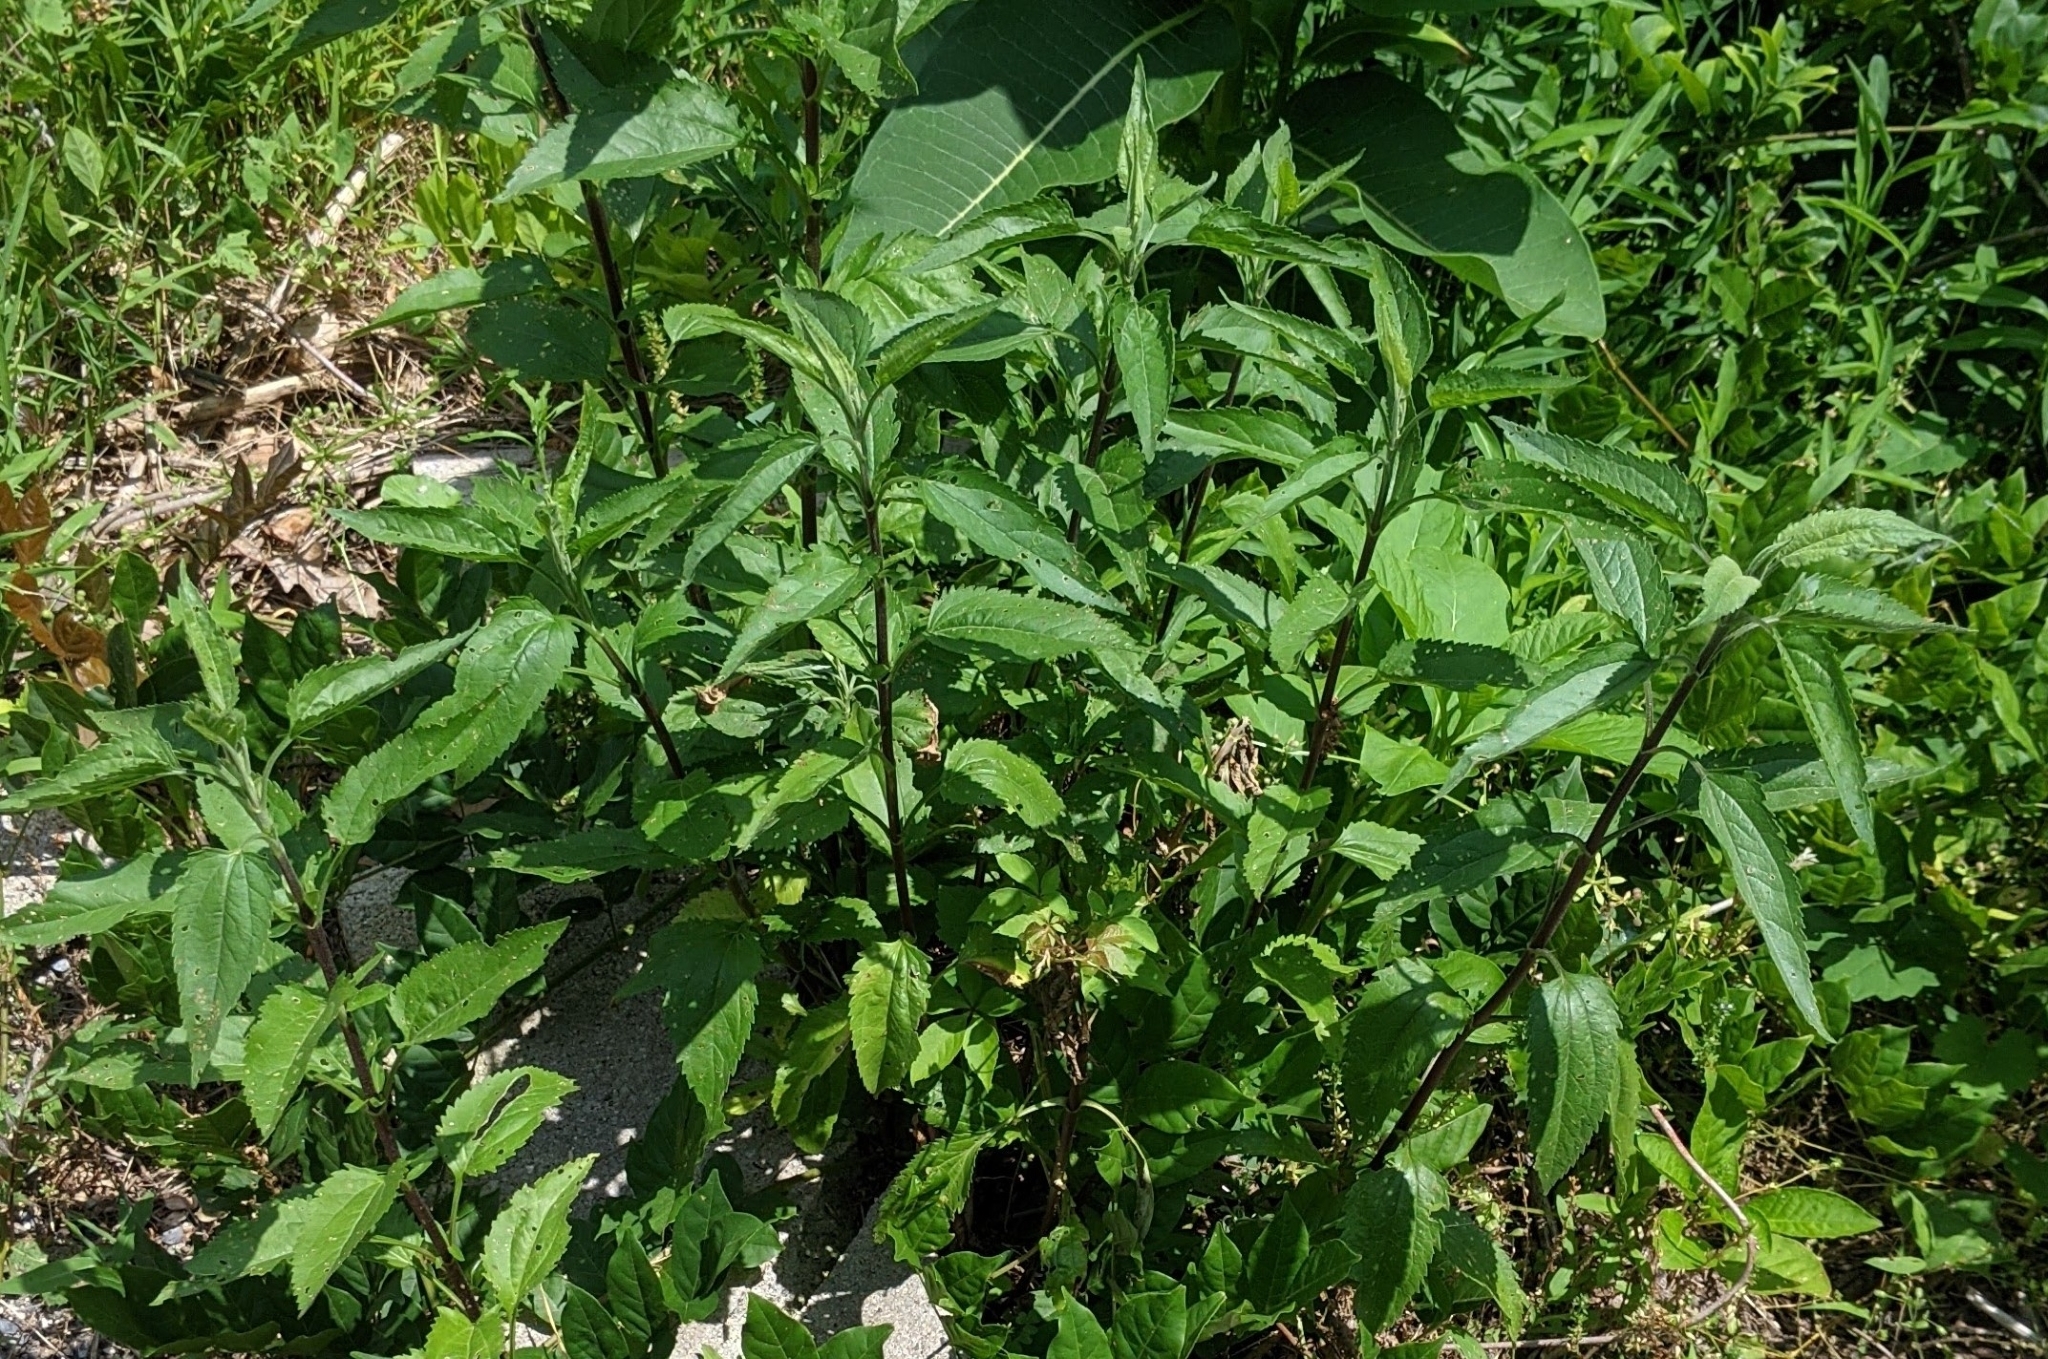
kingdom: Plantae
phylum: Tracheophyta
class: Magnoliopsida
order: Asterales
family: Asteraceae
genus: Eupatorium
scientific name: Eupatorium serotinum
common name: Late boneset
